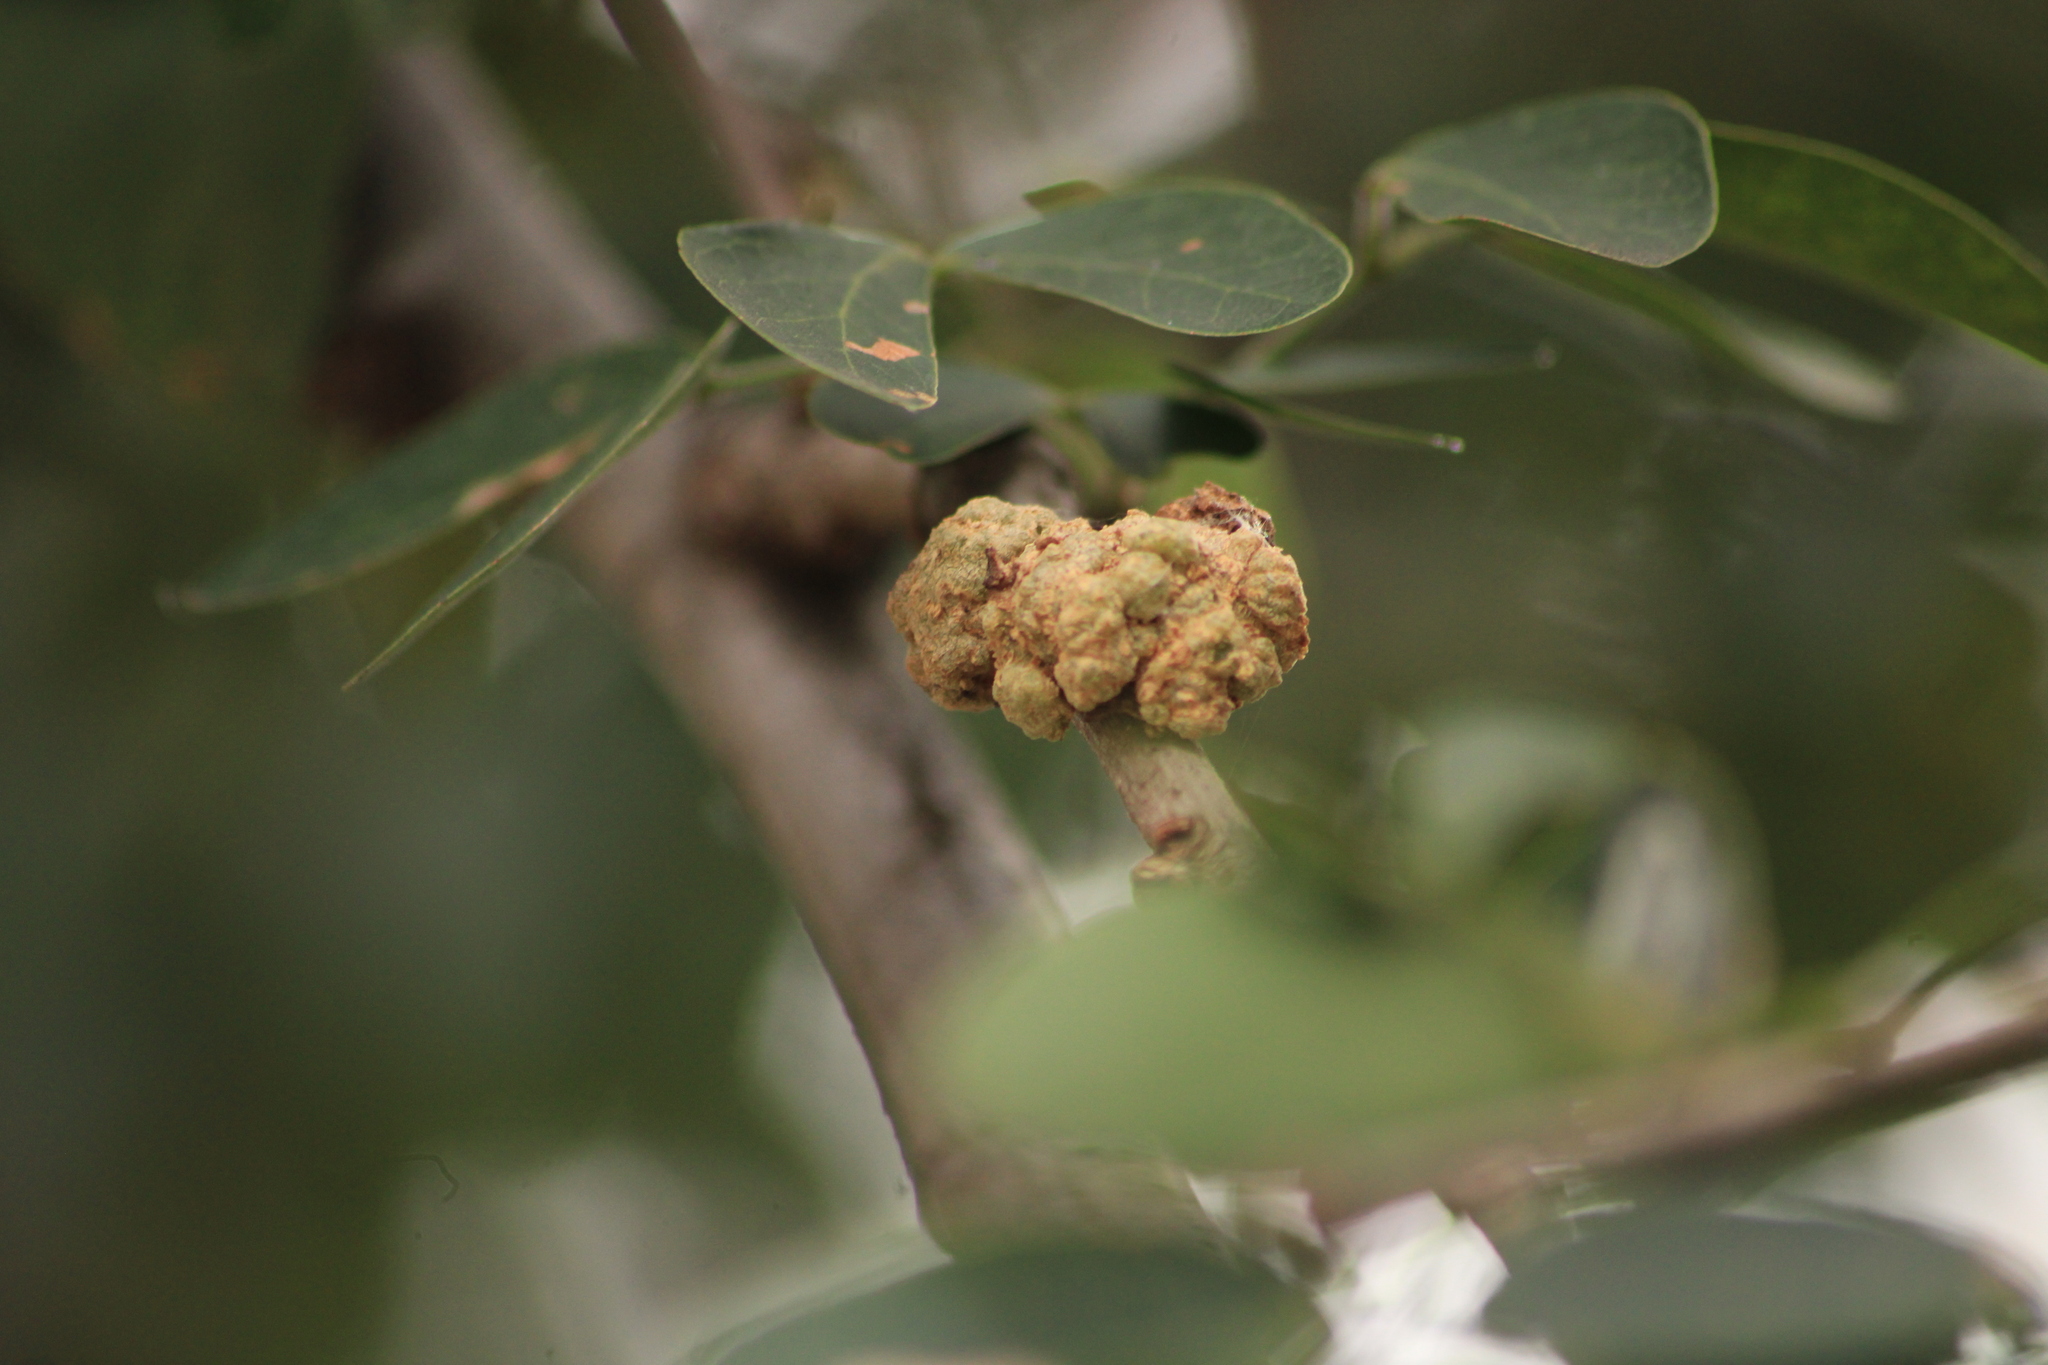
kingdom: Bacteria
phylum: Proteobacteria
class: Alphaproteobacteria
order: Rhizobiales
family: Rhizobiaceae
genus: Rhizobium
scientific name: Rhizobium Agrobacterium radiobacter
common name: Bacterial crown gall
